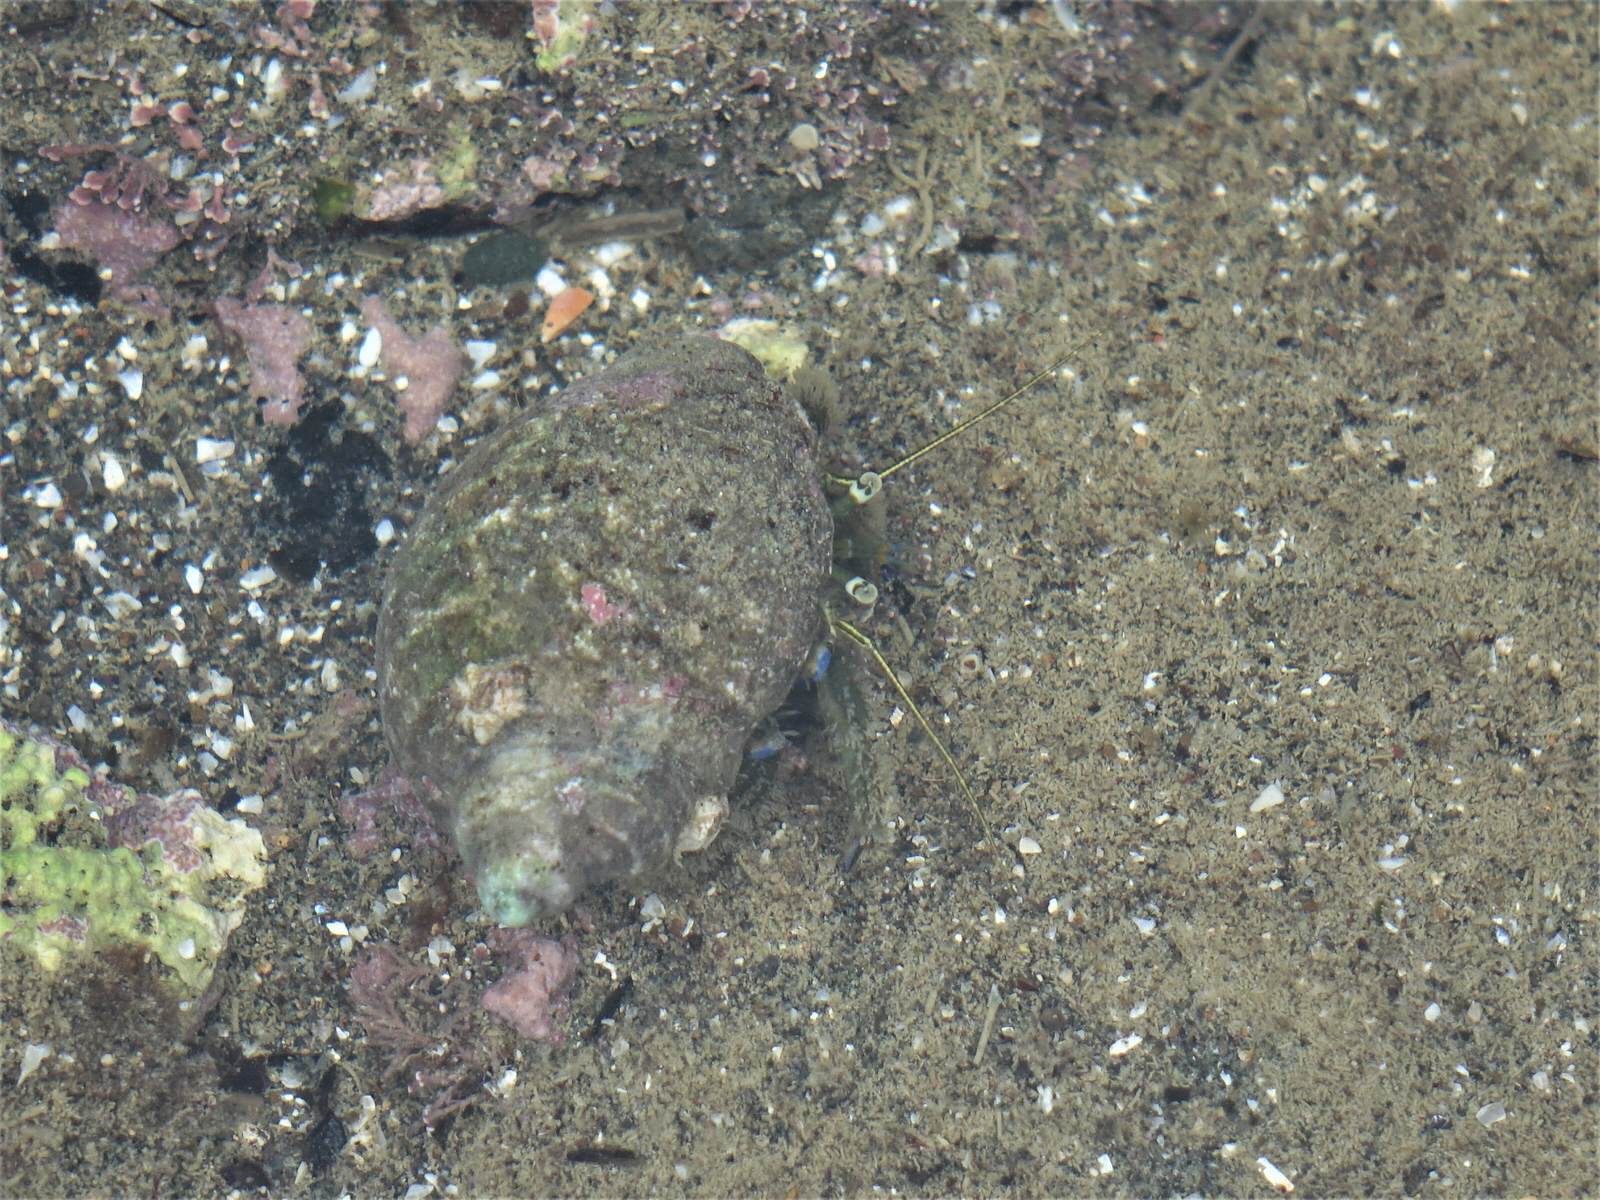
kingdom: Animalia
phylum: Arthropoda
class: Malacostraca
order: Decapoda
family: Paguridae
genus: Pagurus
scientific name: Pagurus novizealandiae
